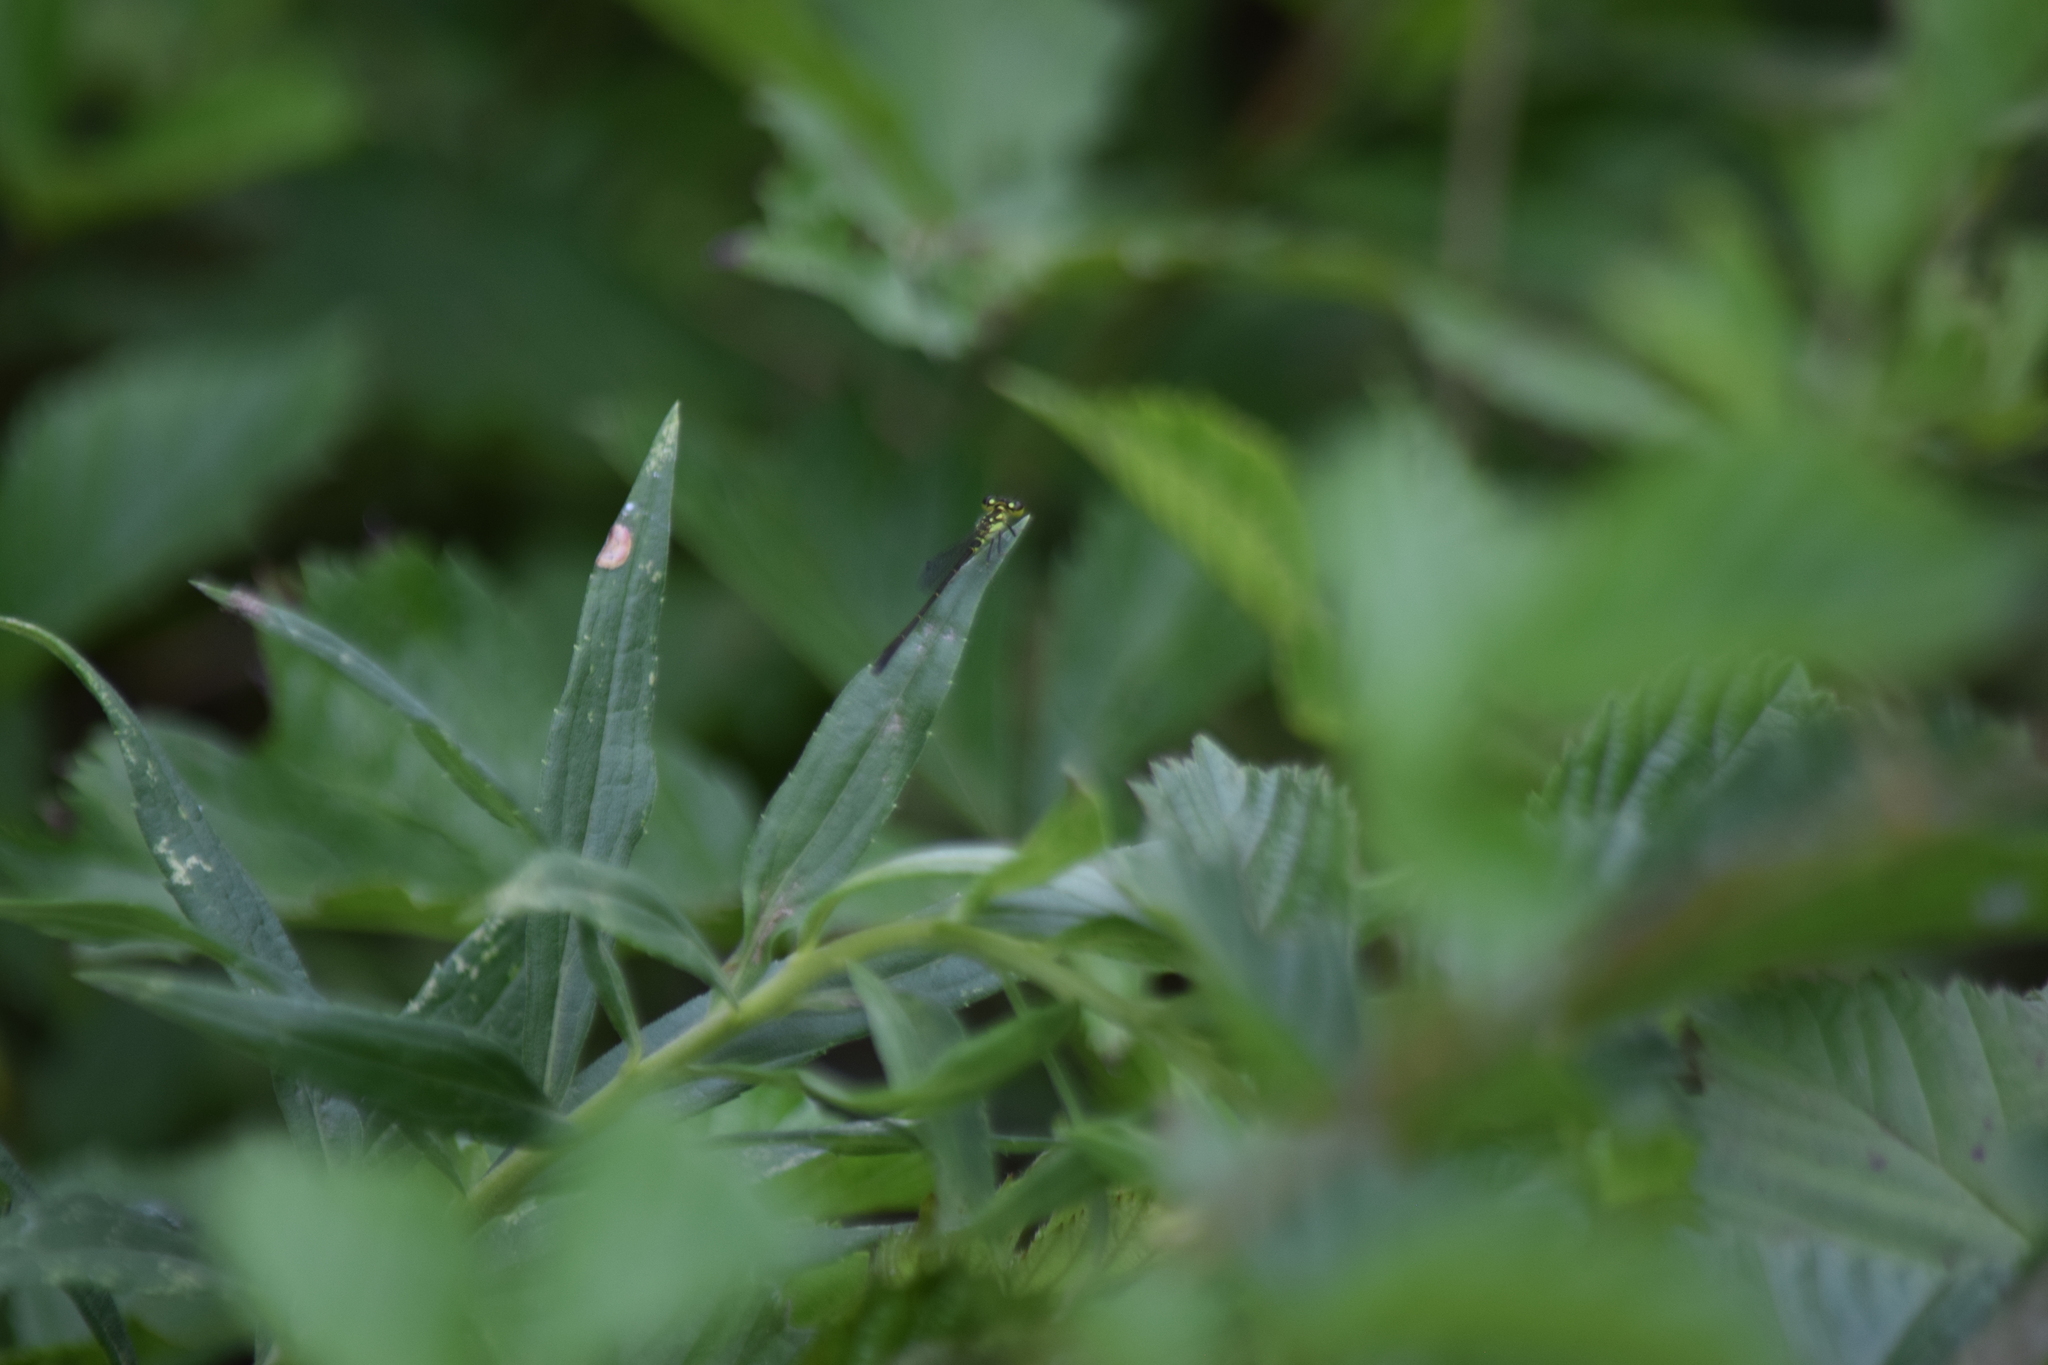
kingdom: Animalia
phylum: Arthropoda
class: Insecta
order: Odonata
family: Coenagrionidae
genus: Ischnura
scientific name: Ischnura posita
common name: Fragile forktail
